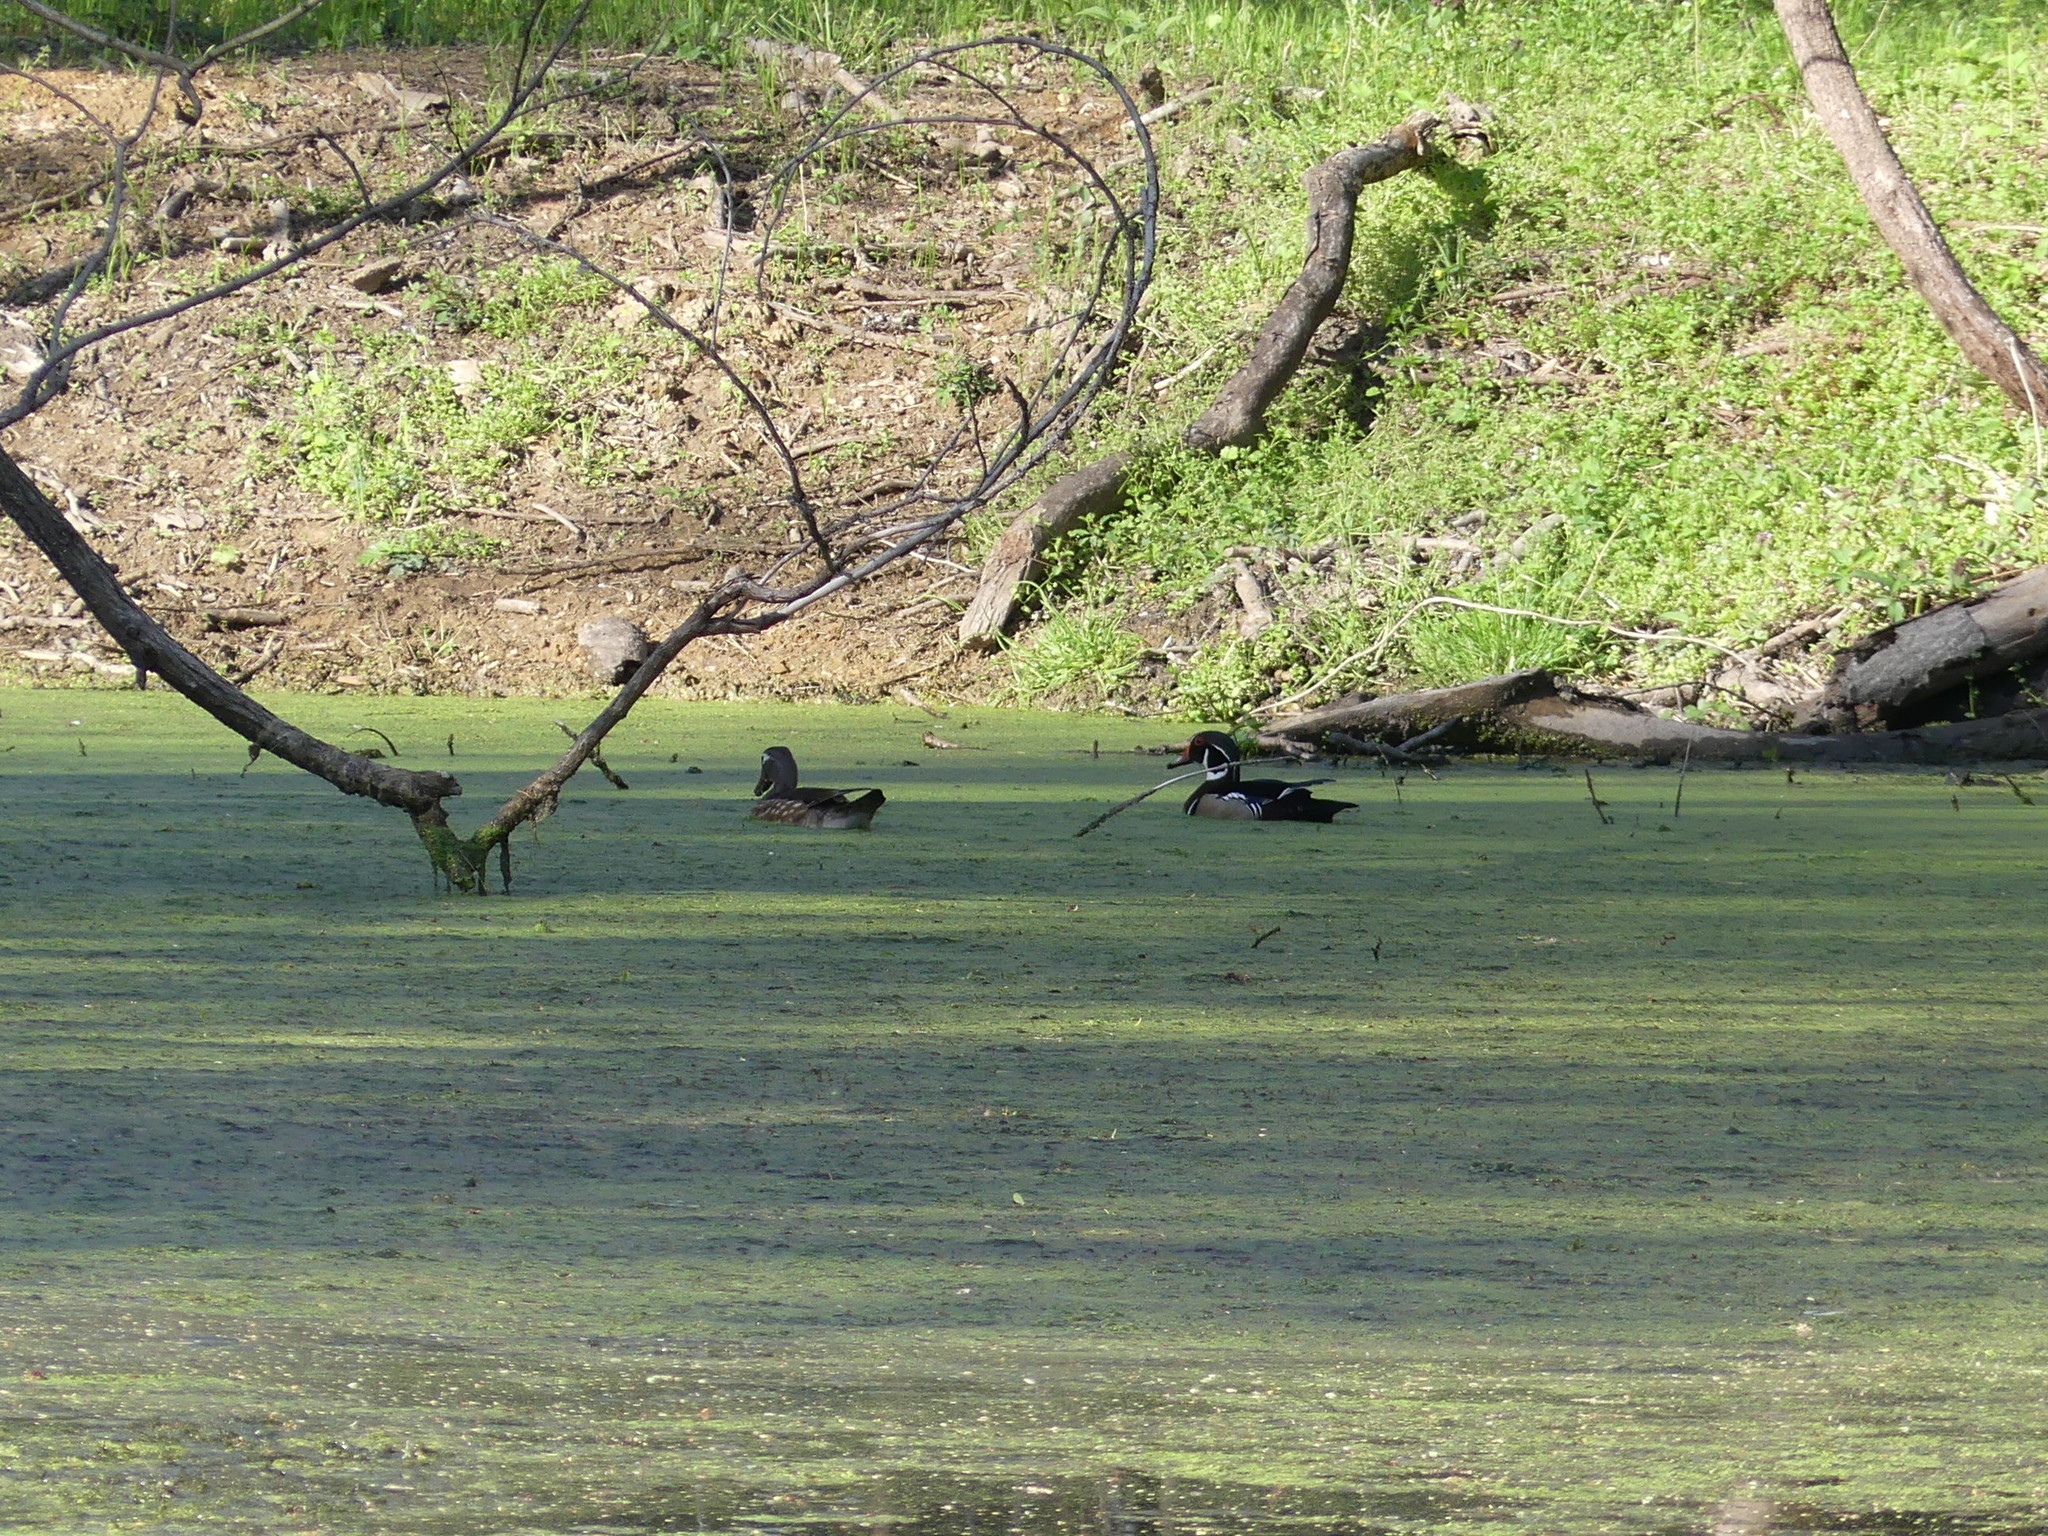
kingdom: Animalia
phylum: Chordata
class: Aves
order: Anseriformes
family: Anatidae
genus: Aix
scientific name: Aix sponsa
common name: Wood duck
